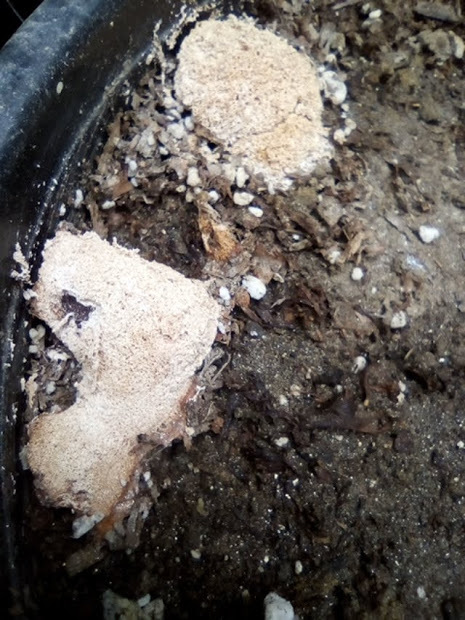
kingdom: Protozoa
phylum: Mycetozoa
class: Myxomycetes
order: Physarales
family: Physaraceae
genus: Fuligo
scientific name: Fuligo septica
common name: Dog vomit slime mold
